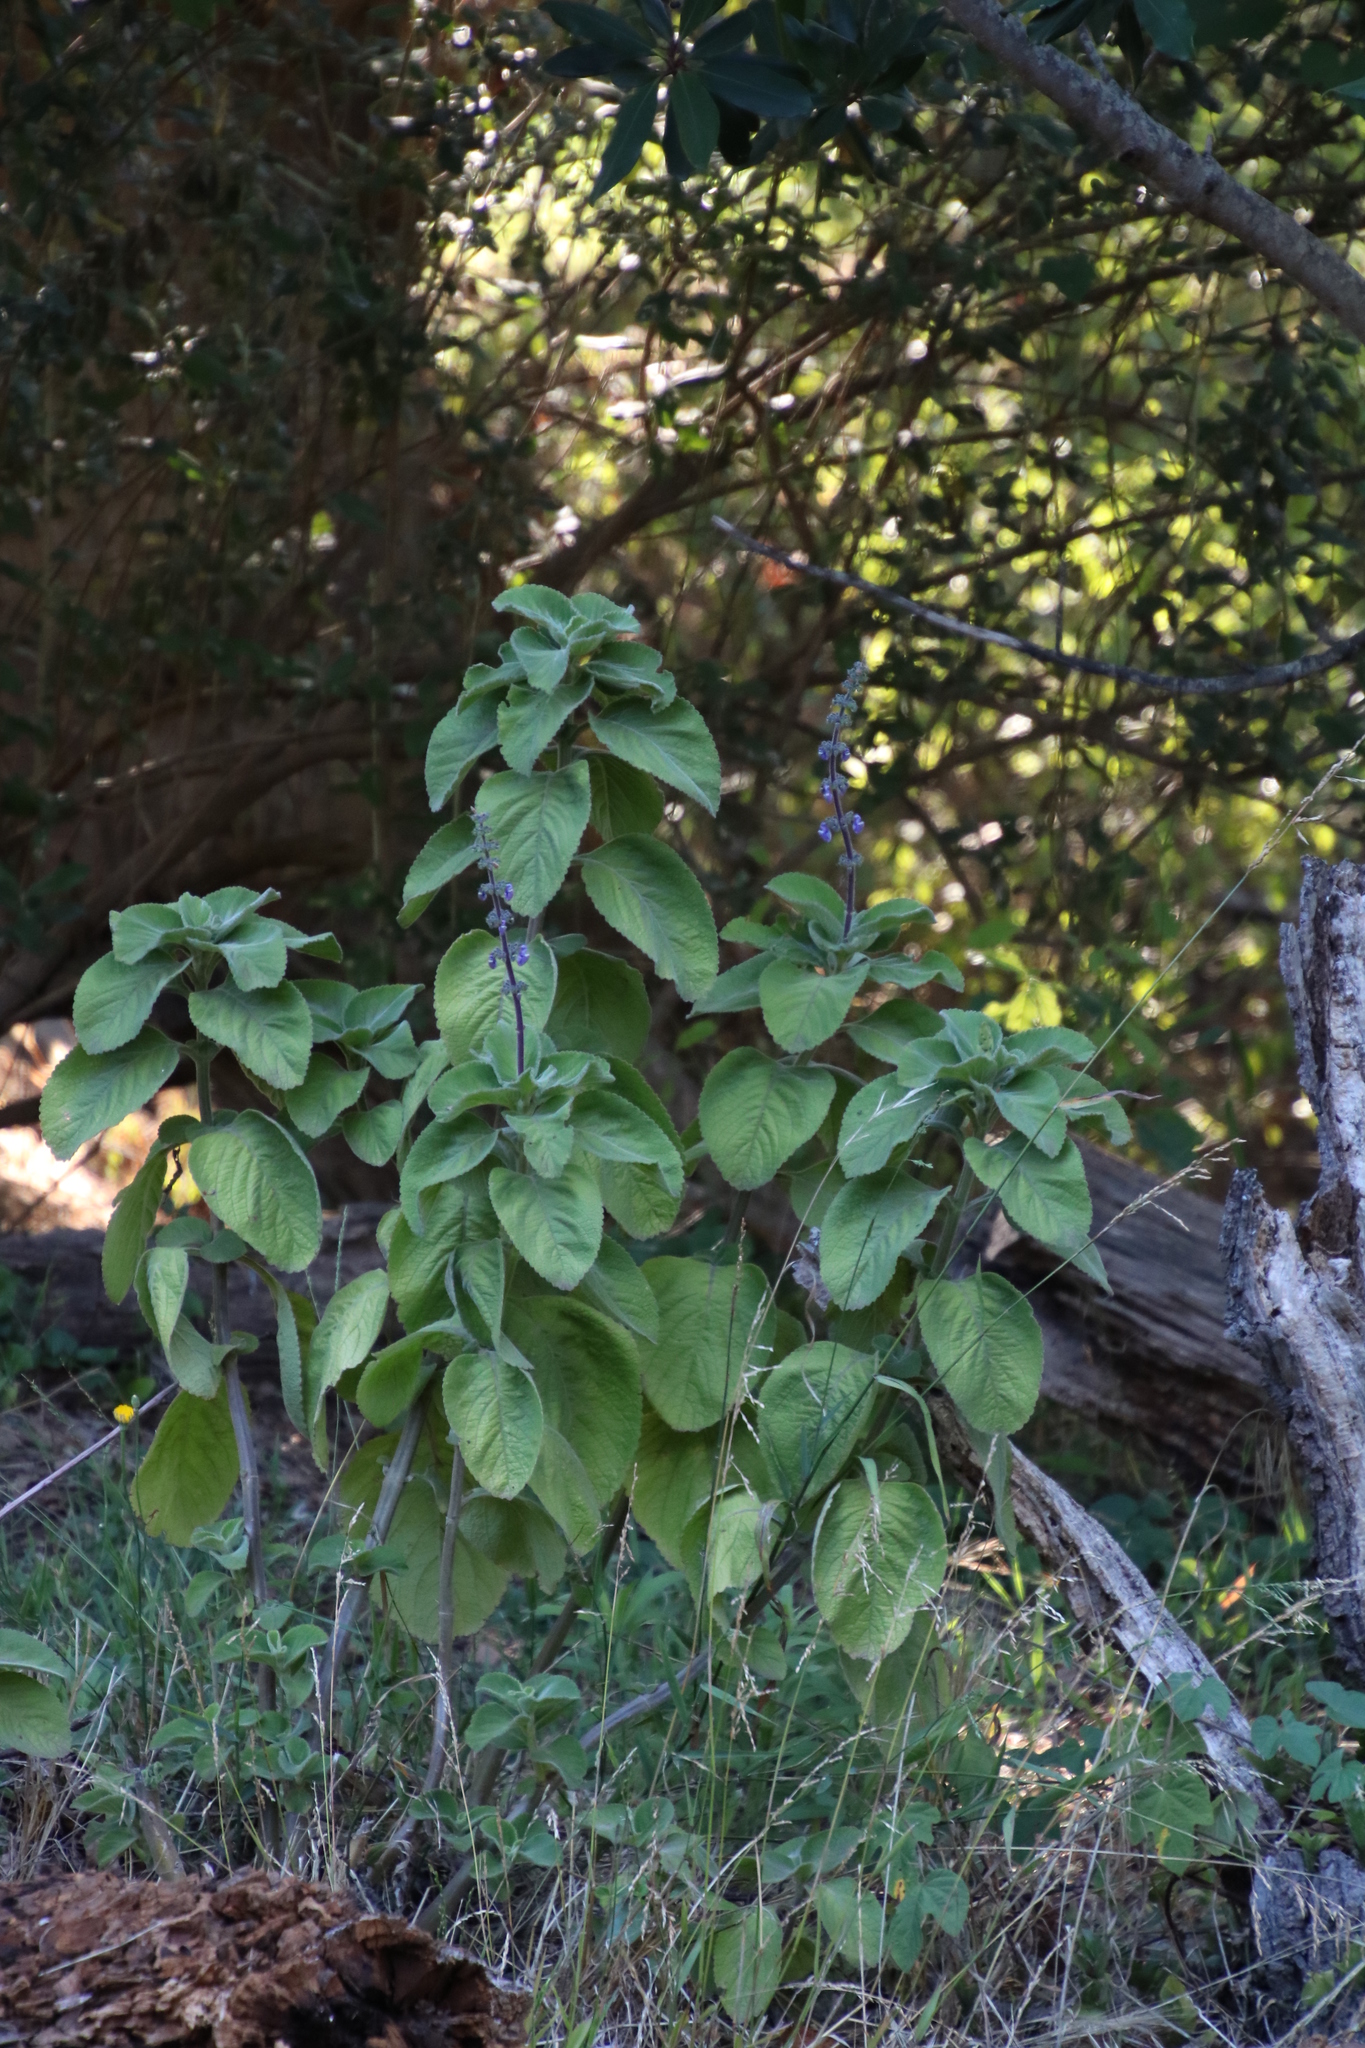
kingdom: Plantae
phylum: Tracheophyta
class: Magnoliopsida
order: Lamiales
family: Lamiaceae
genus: Coleus
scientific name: Coleus barbatus
